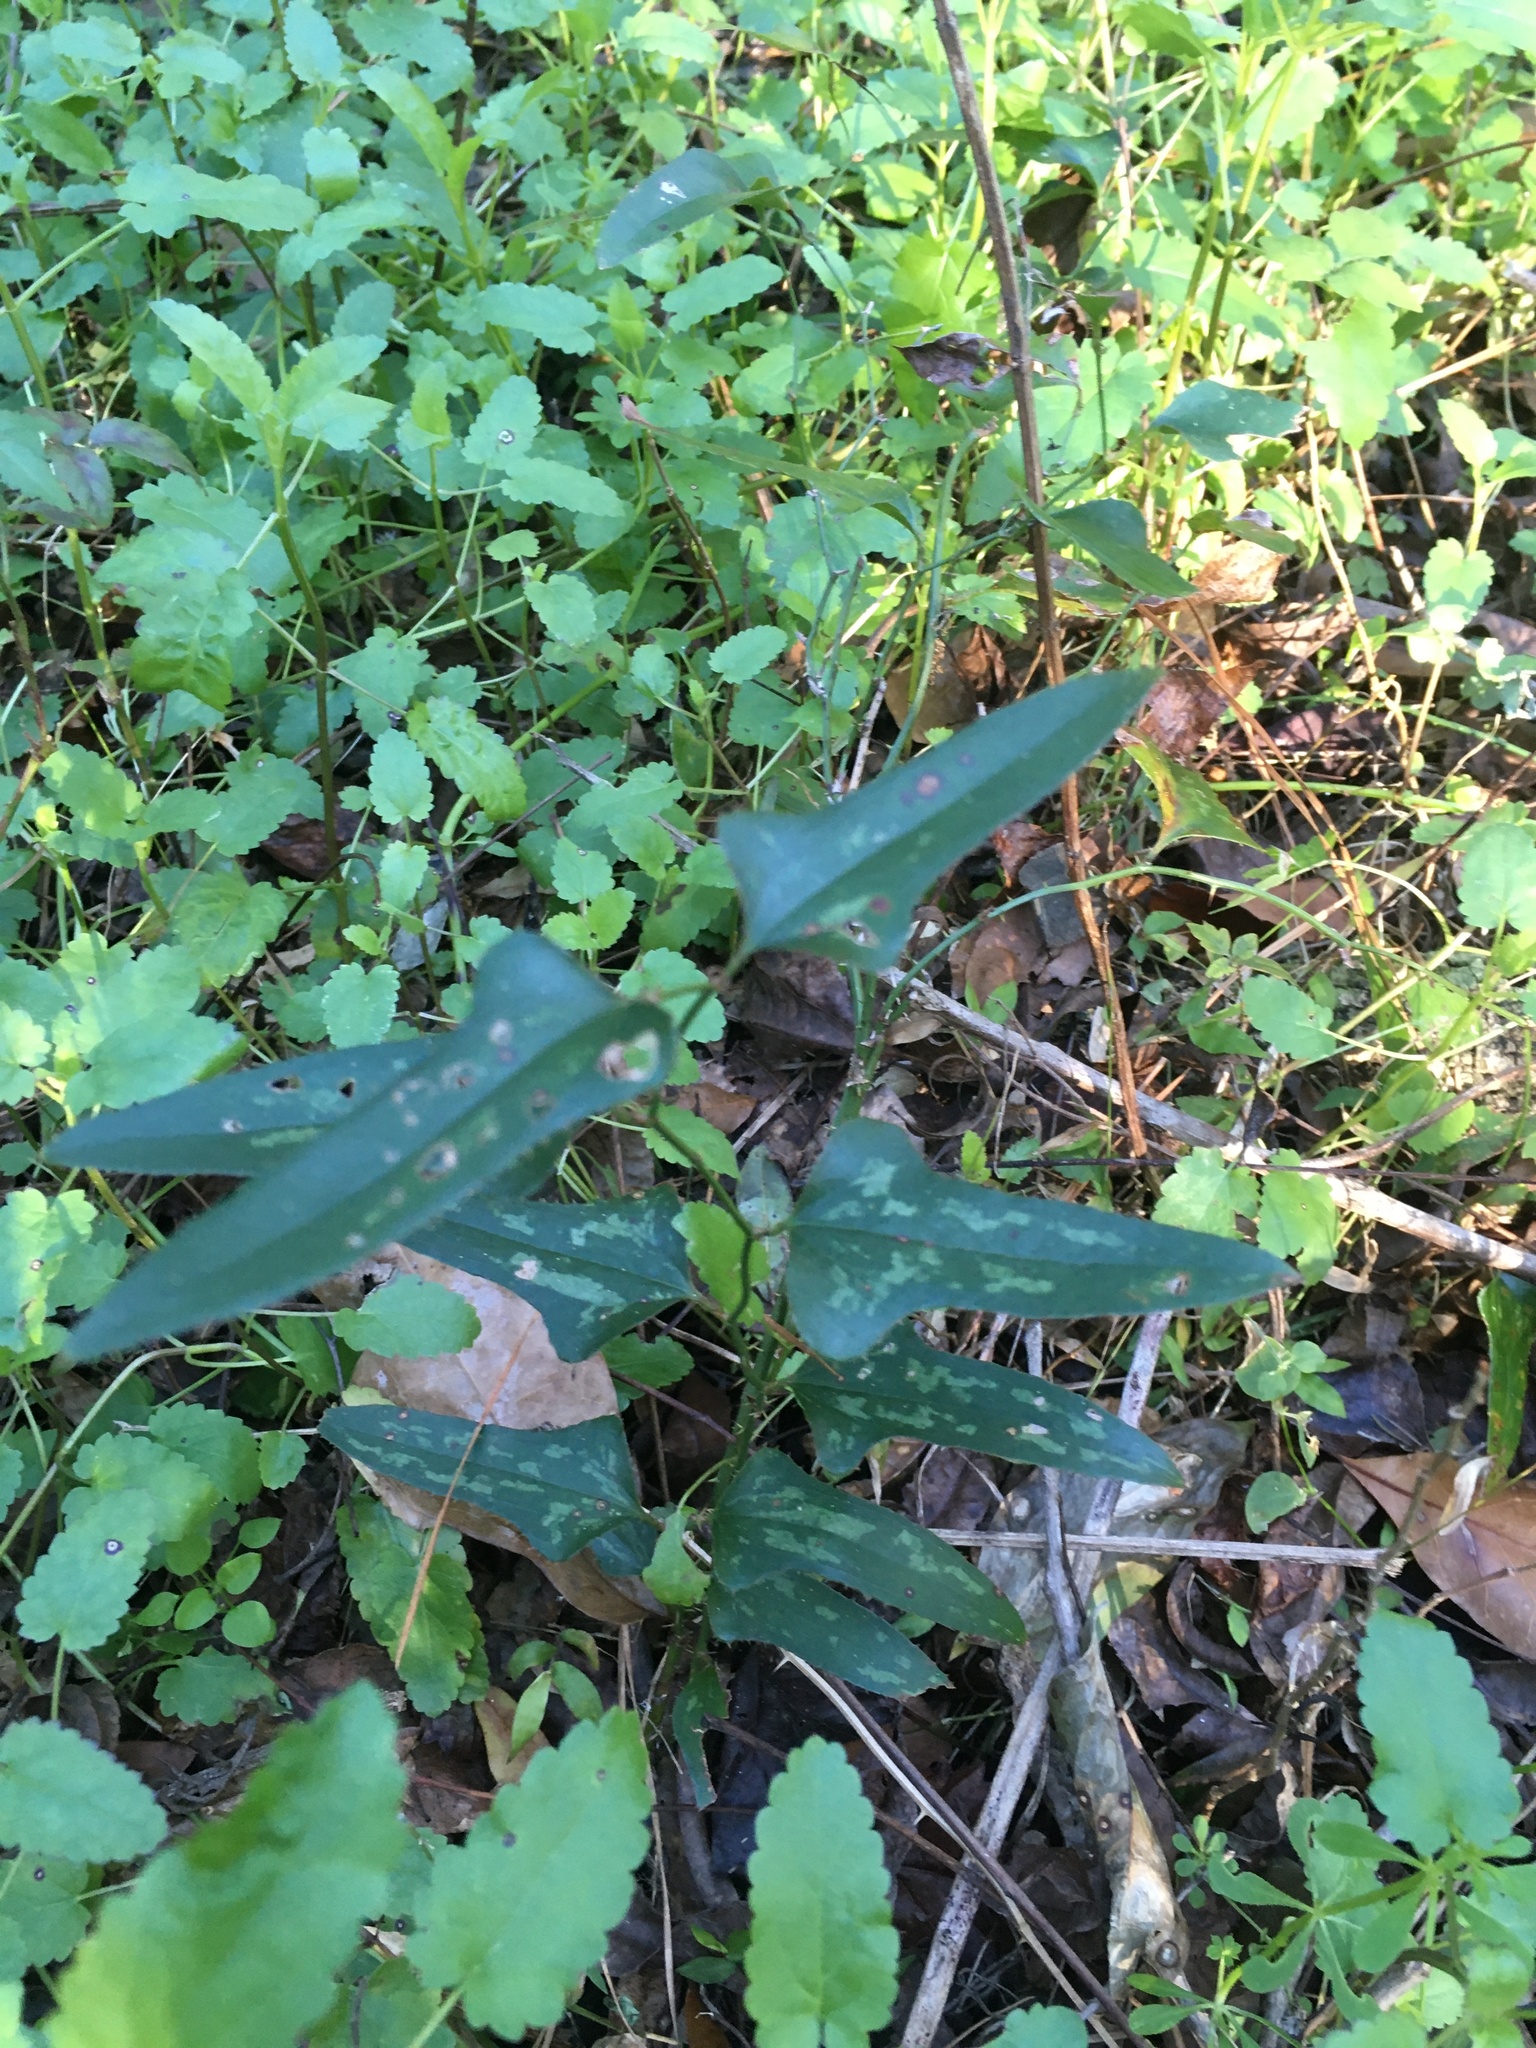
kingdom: Plantae
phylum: Tracheophyta
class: Liliopsida
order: Liliales
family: Smilacaceae
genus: Smilax
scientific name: Smilax bona-nox
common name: Catbrier
